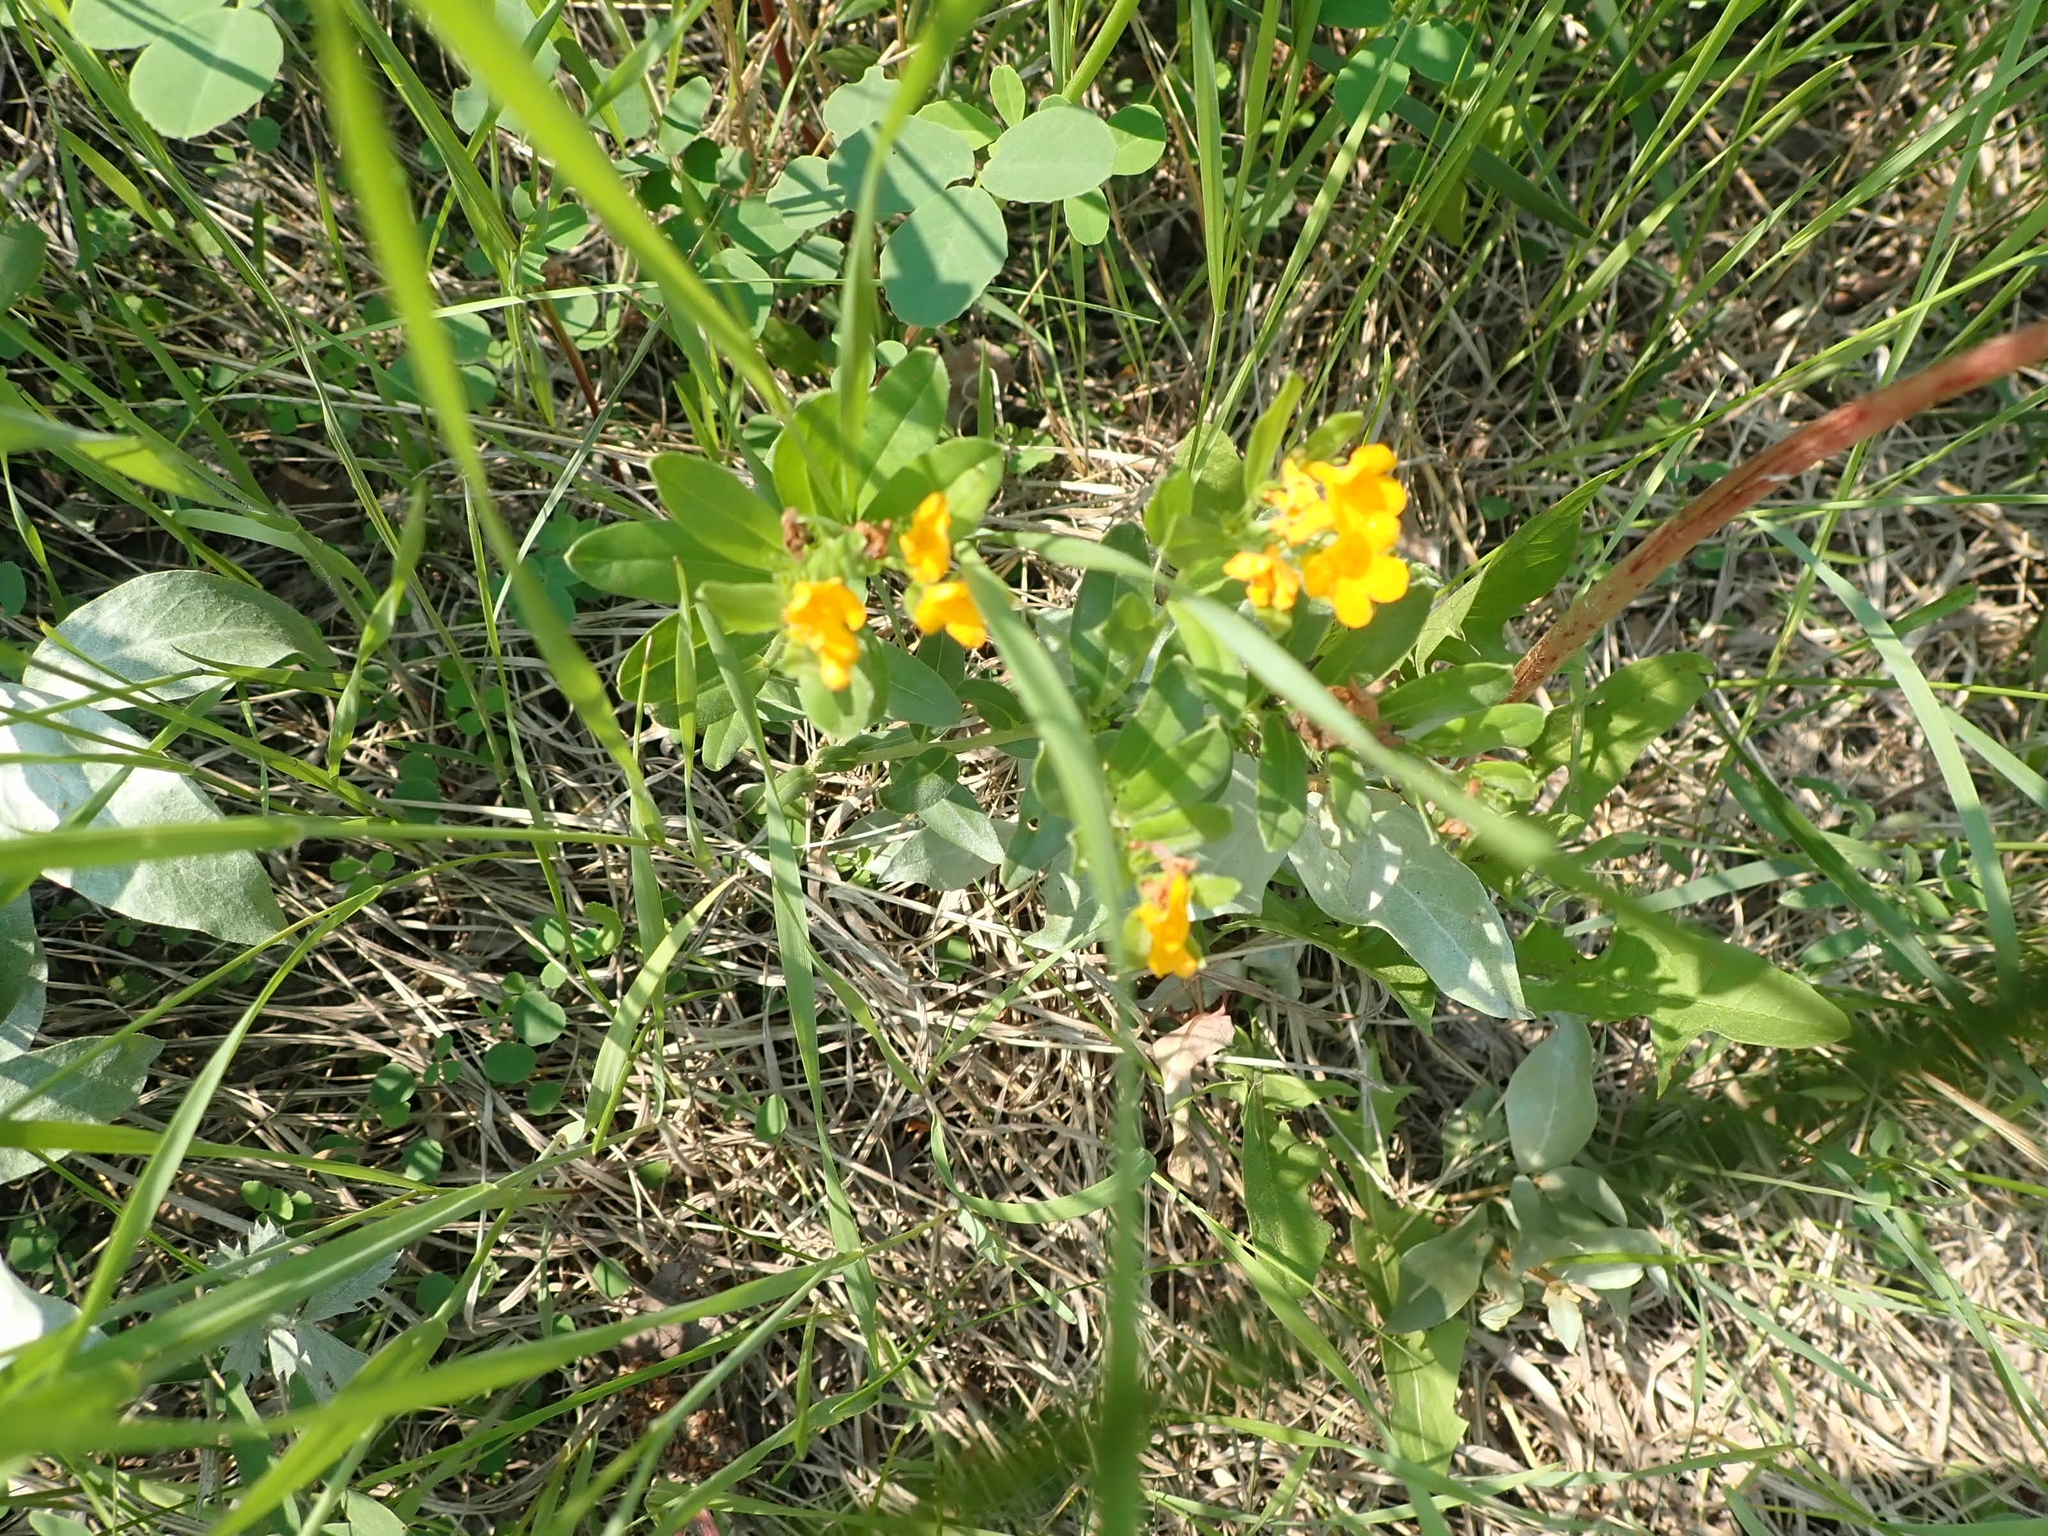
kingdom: Plantae
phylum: Tracheophyta
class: Magnoliopsida
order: Boraginales
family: Boraginaceae
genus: Lithospermum
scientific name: Lithospermum canescens
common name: Hoary puccoon
